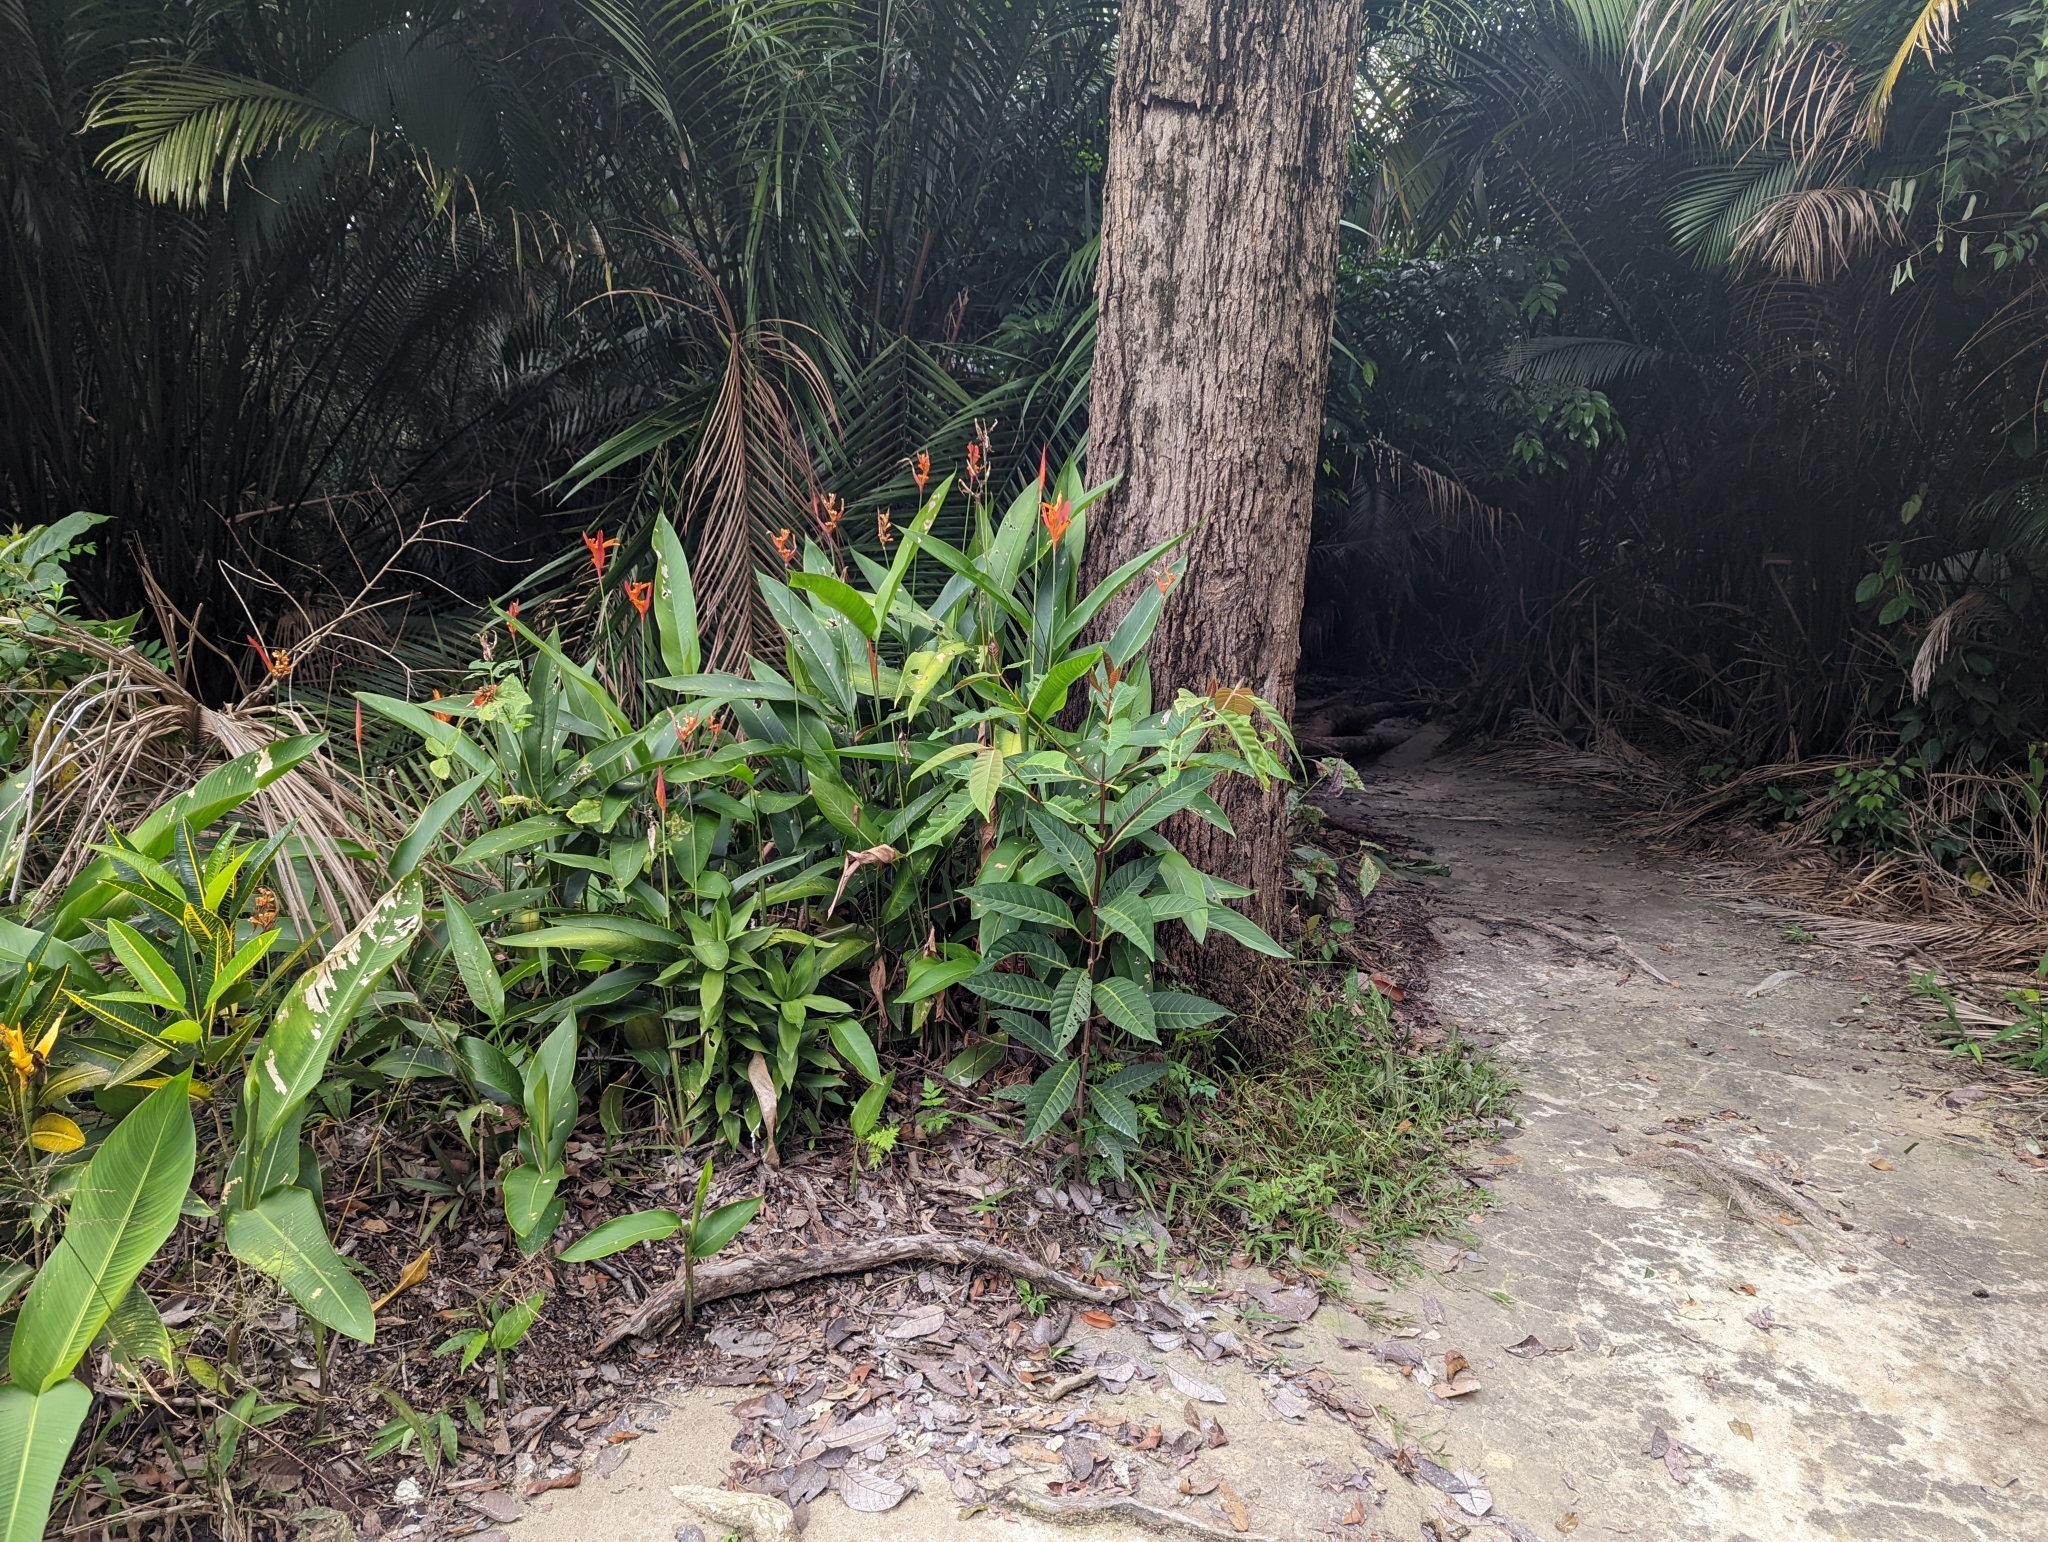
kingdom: Plantae
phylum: Tracheophyta
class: Liliopsida
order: Zingiberales
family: Heliconiaceae
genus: Heliconia
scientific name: Heliconia psittacorum
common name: Parrot's-flower
